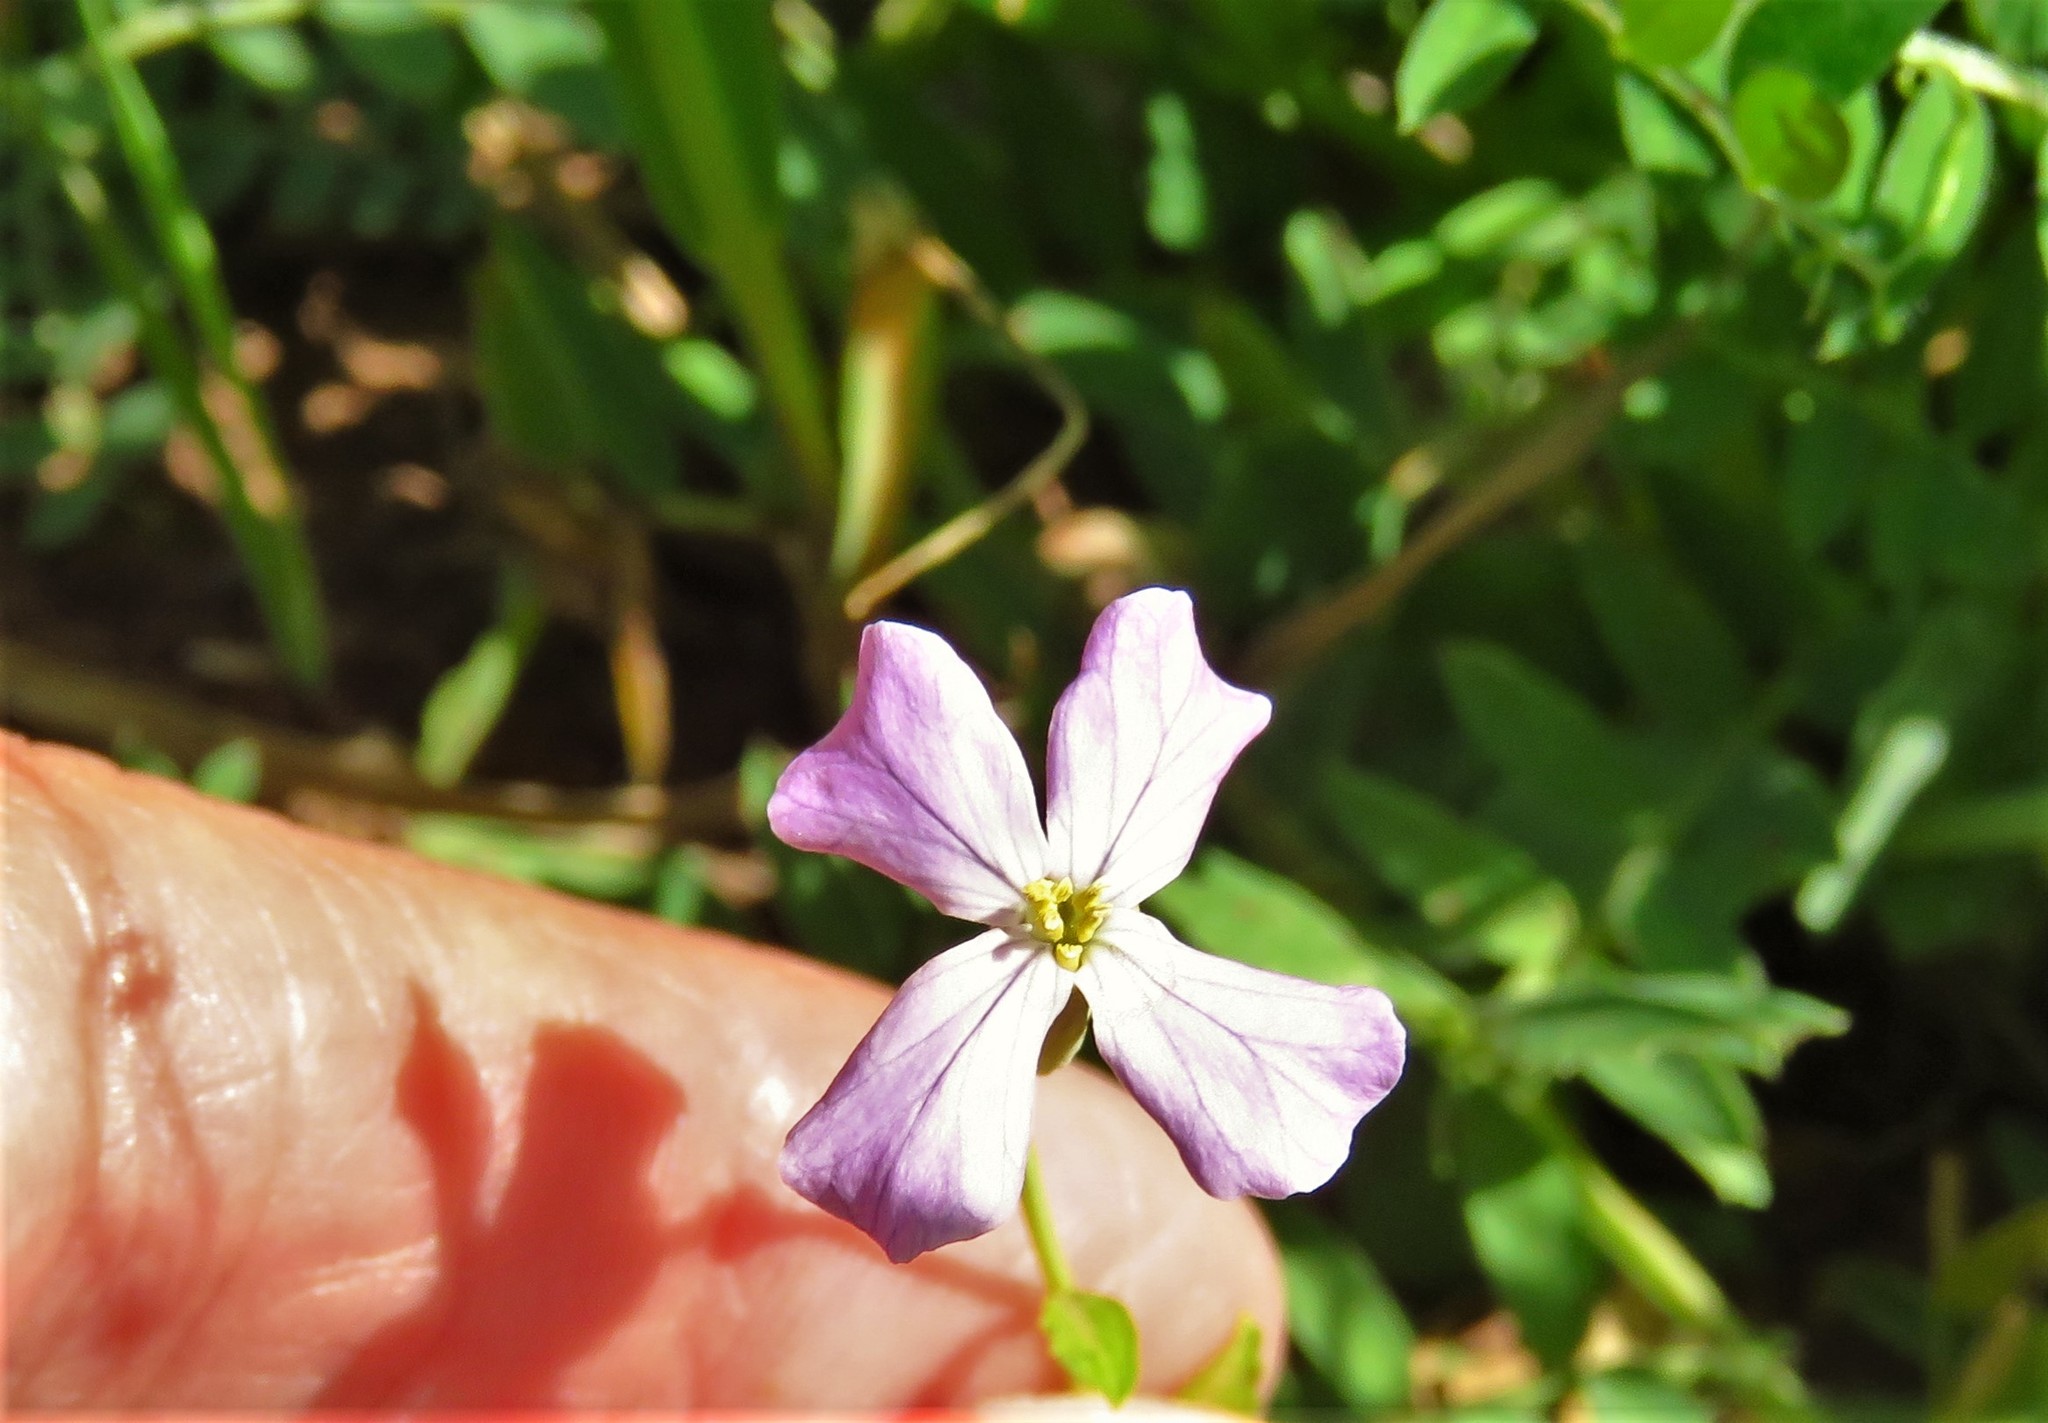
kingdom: Plantae
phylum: Tracheophyta
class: Magnoliopsida
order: Brassicales
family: Brassicaceae
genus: Raphanus
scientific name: Raphanus sativus
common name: Cultivated radish
